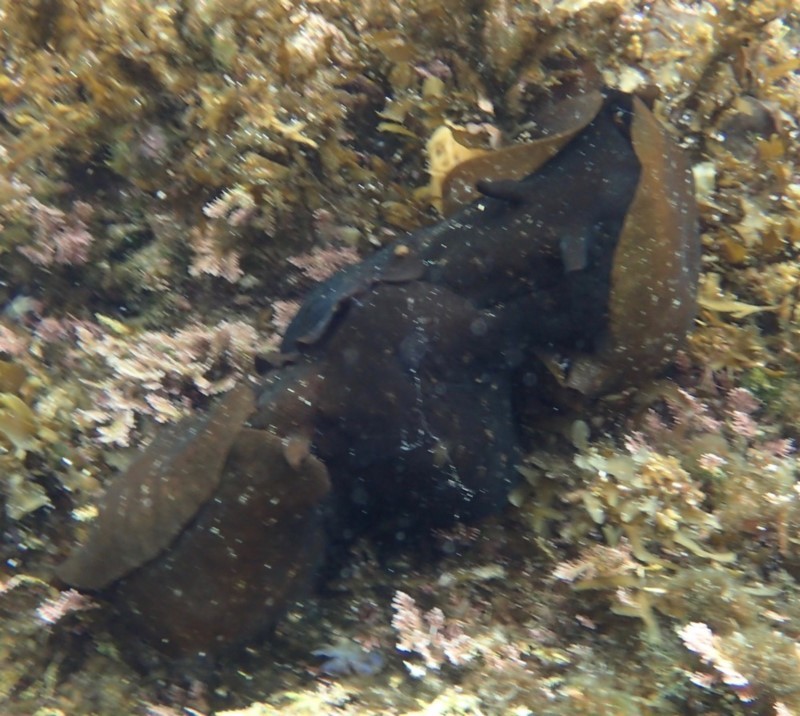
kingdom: Animalia
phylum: Mollusca
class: Gastropoda
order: Aplysiida
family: Aplysiidae
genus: Aplysia
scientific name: Aplysia juliana
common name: Walking sea hare
